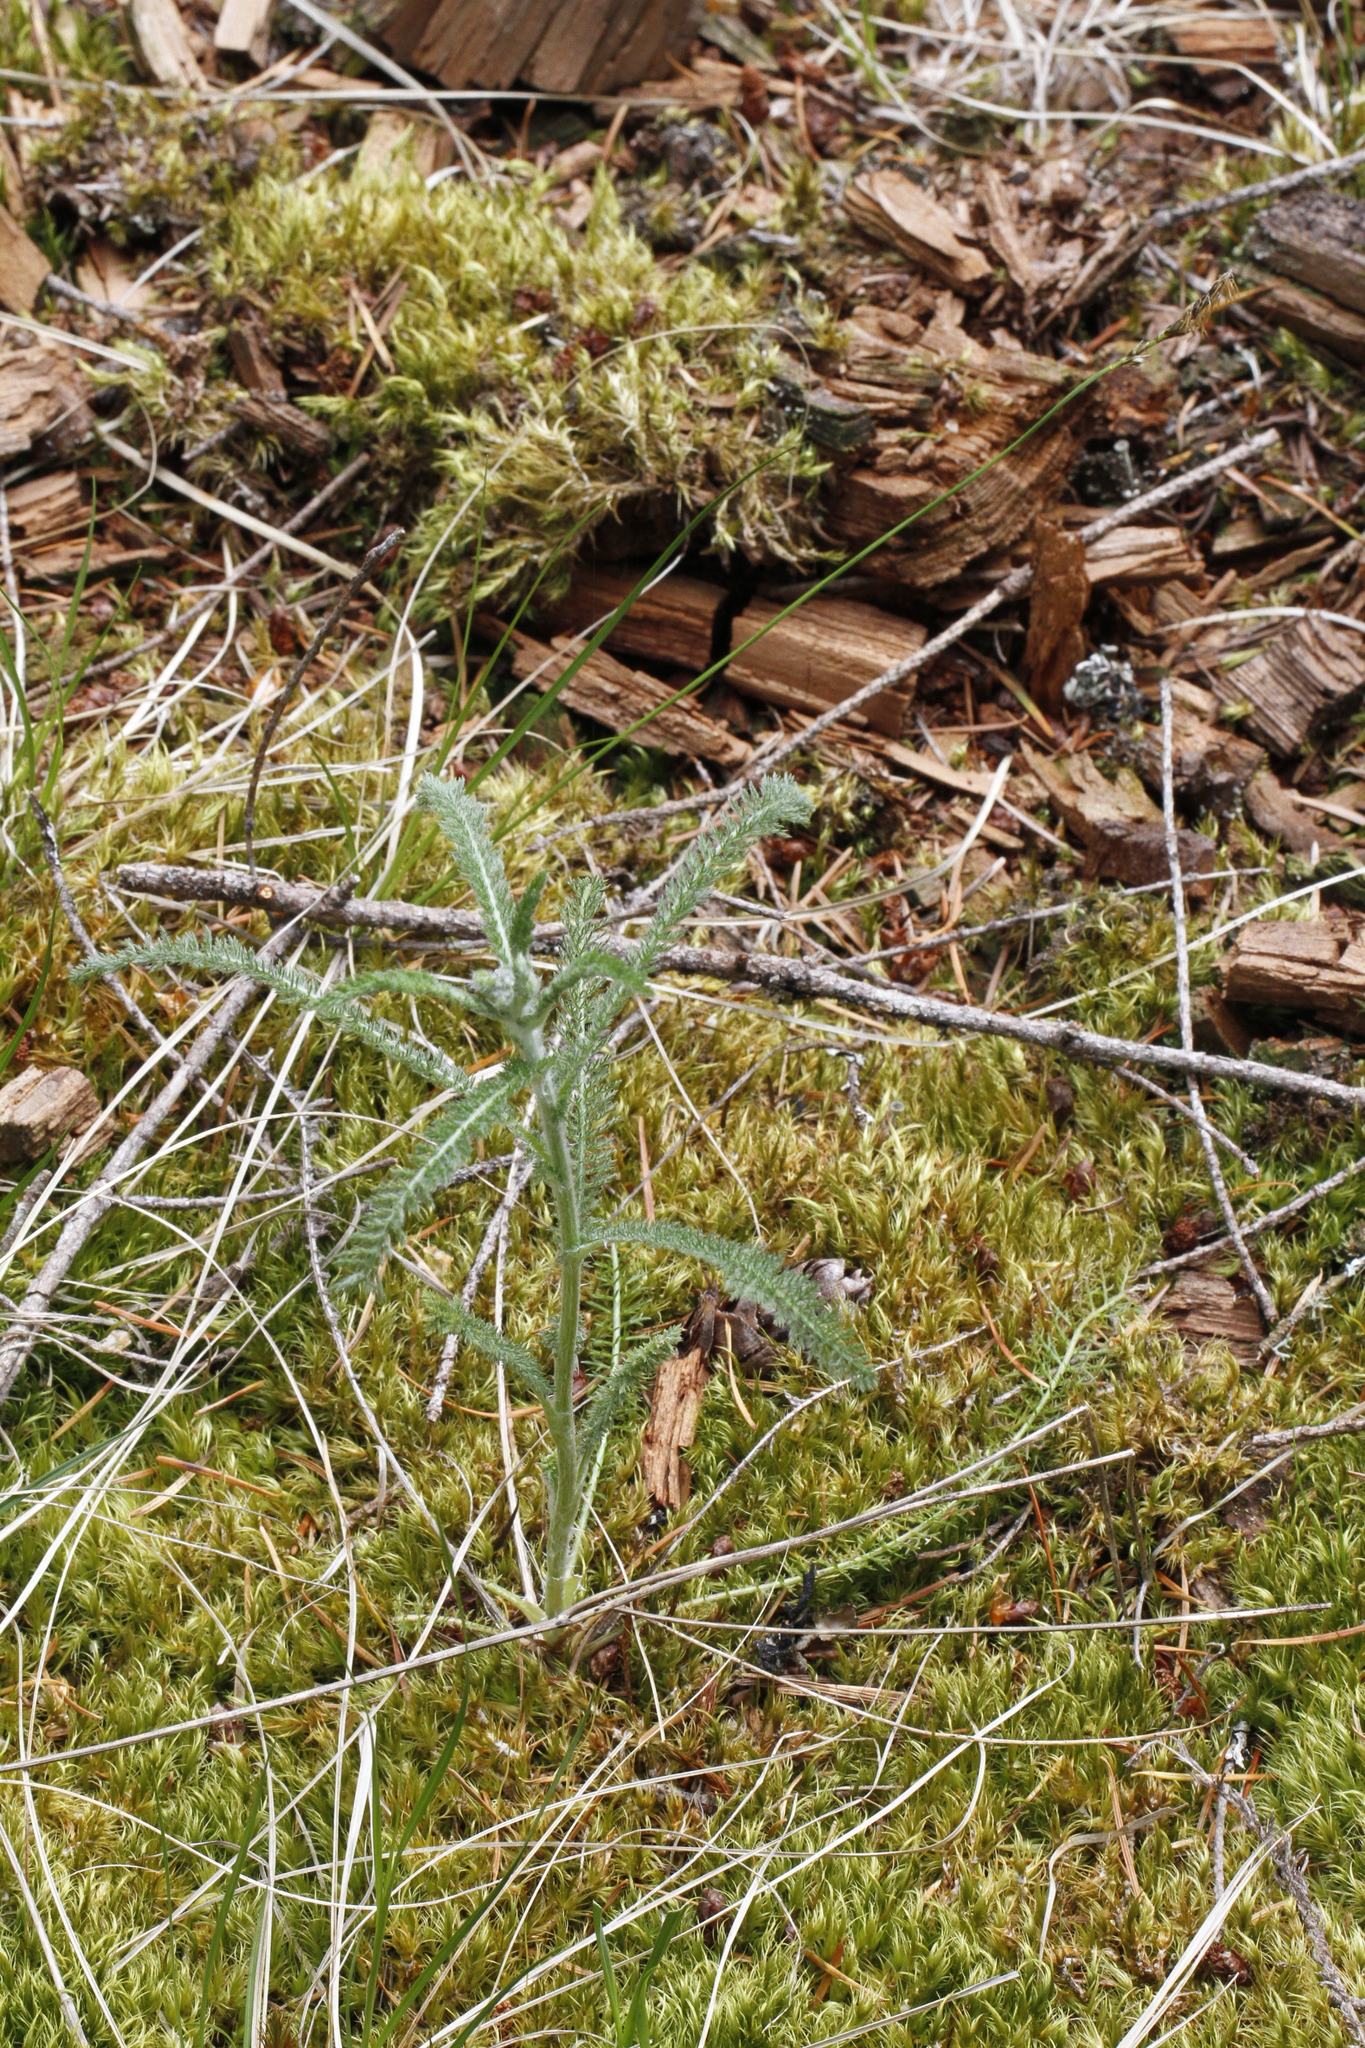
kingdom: Plantae
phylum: Tracheophyta
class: Magnoliopsida
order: Asterales
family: Asteraceae
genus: Achillea
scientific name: Achillea millefolium
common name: Yarrow
